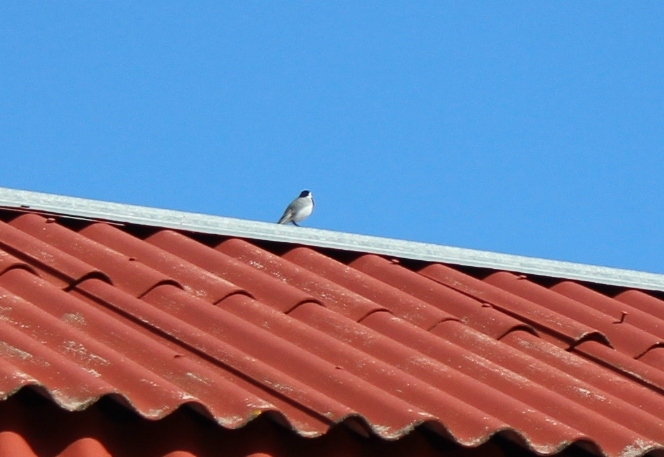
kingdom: Animalia
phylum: Chordata
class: Aves
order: Passeriformes
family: Motacillidae
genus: Motacilla
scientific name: Motacilla alba
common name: White wagtail
